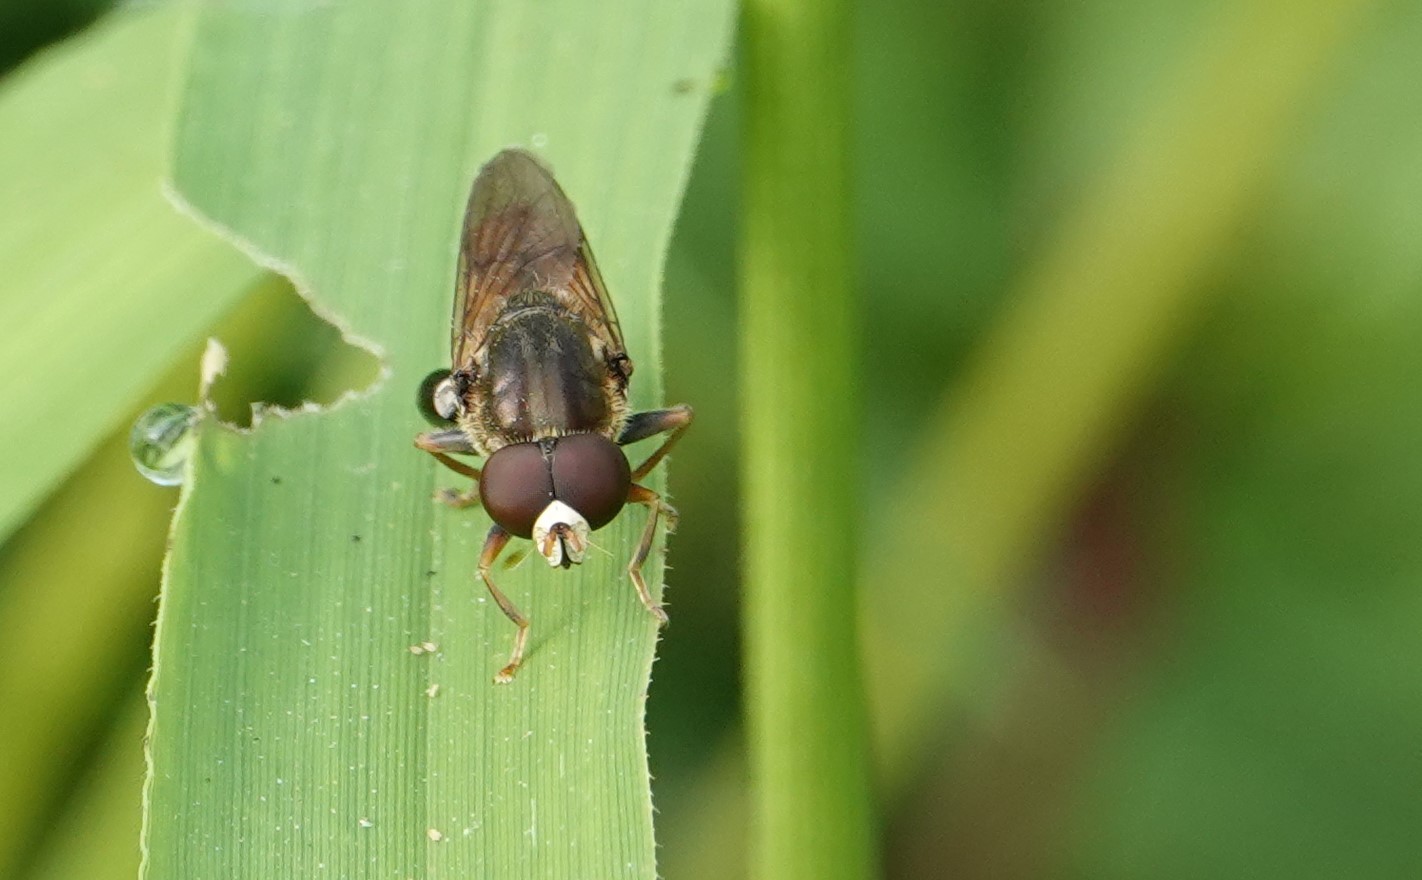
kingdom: Animalia
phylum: Arthropoda
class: Insecta
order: Diptera
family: Syrphidae
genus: Tropidia
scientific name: Tropidia quadrata
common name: Common thick-legged fly
